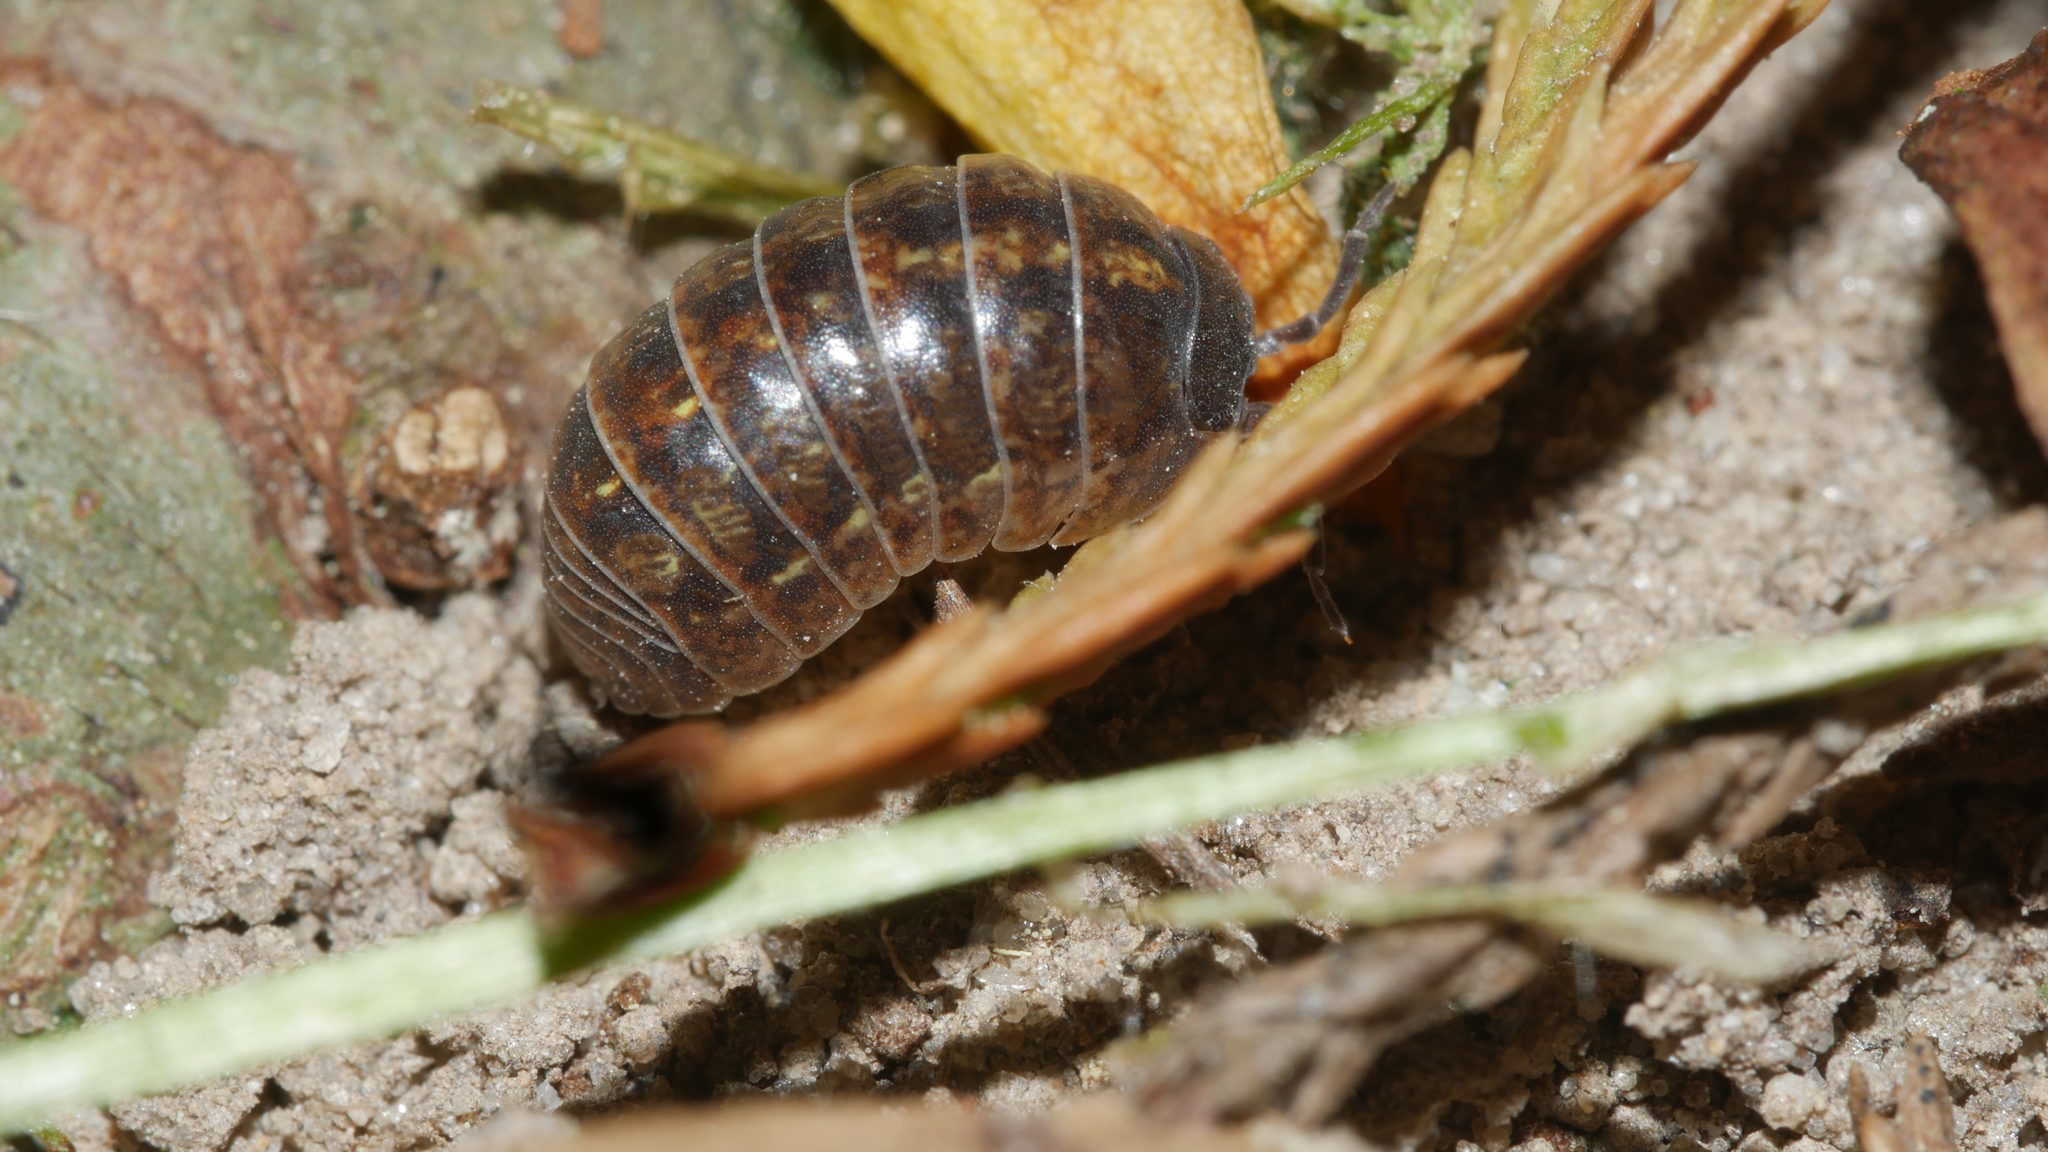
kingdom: Animalia
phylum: Arthropoda
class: Malacostraca
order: Isopoda
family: Armadillidiidae
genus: Armadillidium
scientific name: Armadillidium vulgare
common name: Common pill woodlouse
